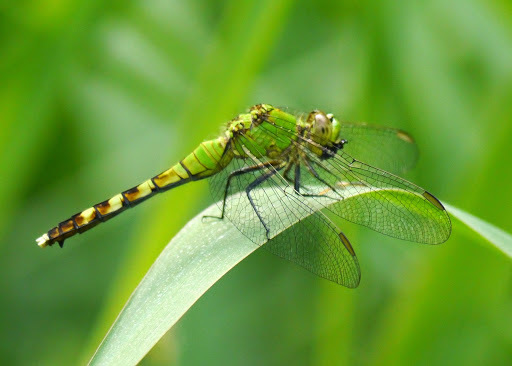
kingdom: Animalia
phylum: Arthropoda
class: Insecta
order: Odonata
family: Libellulidae
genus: Erythemis
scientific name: Erythemis simplicicollis
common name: Eastern pondhawk
